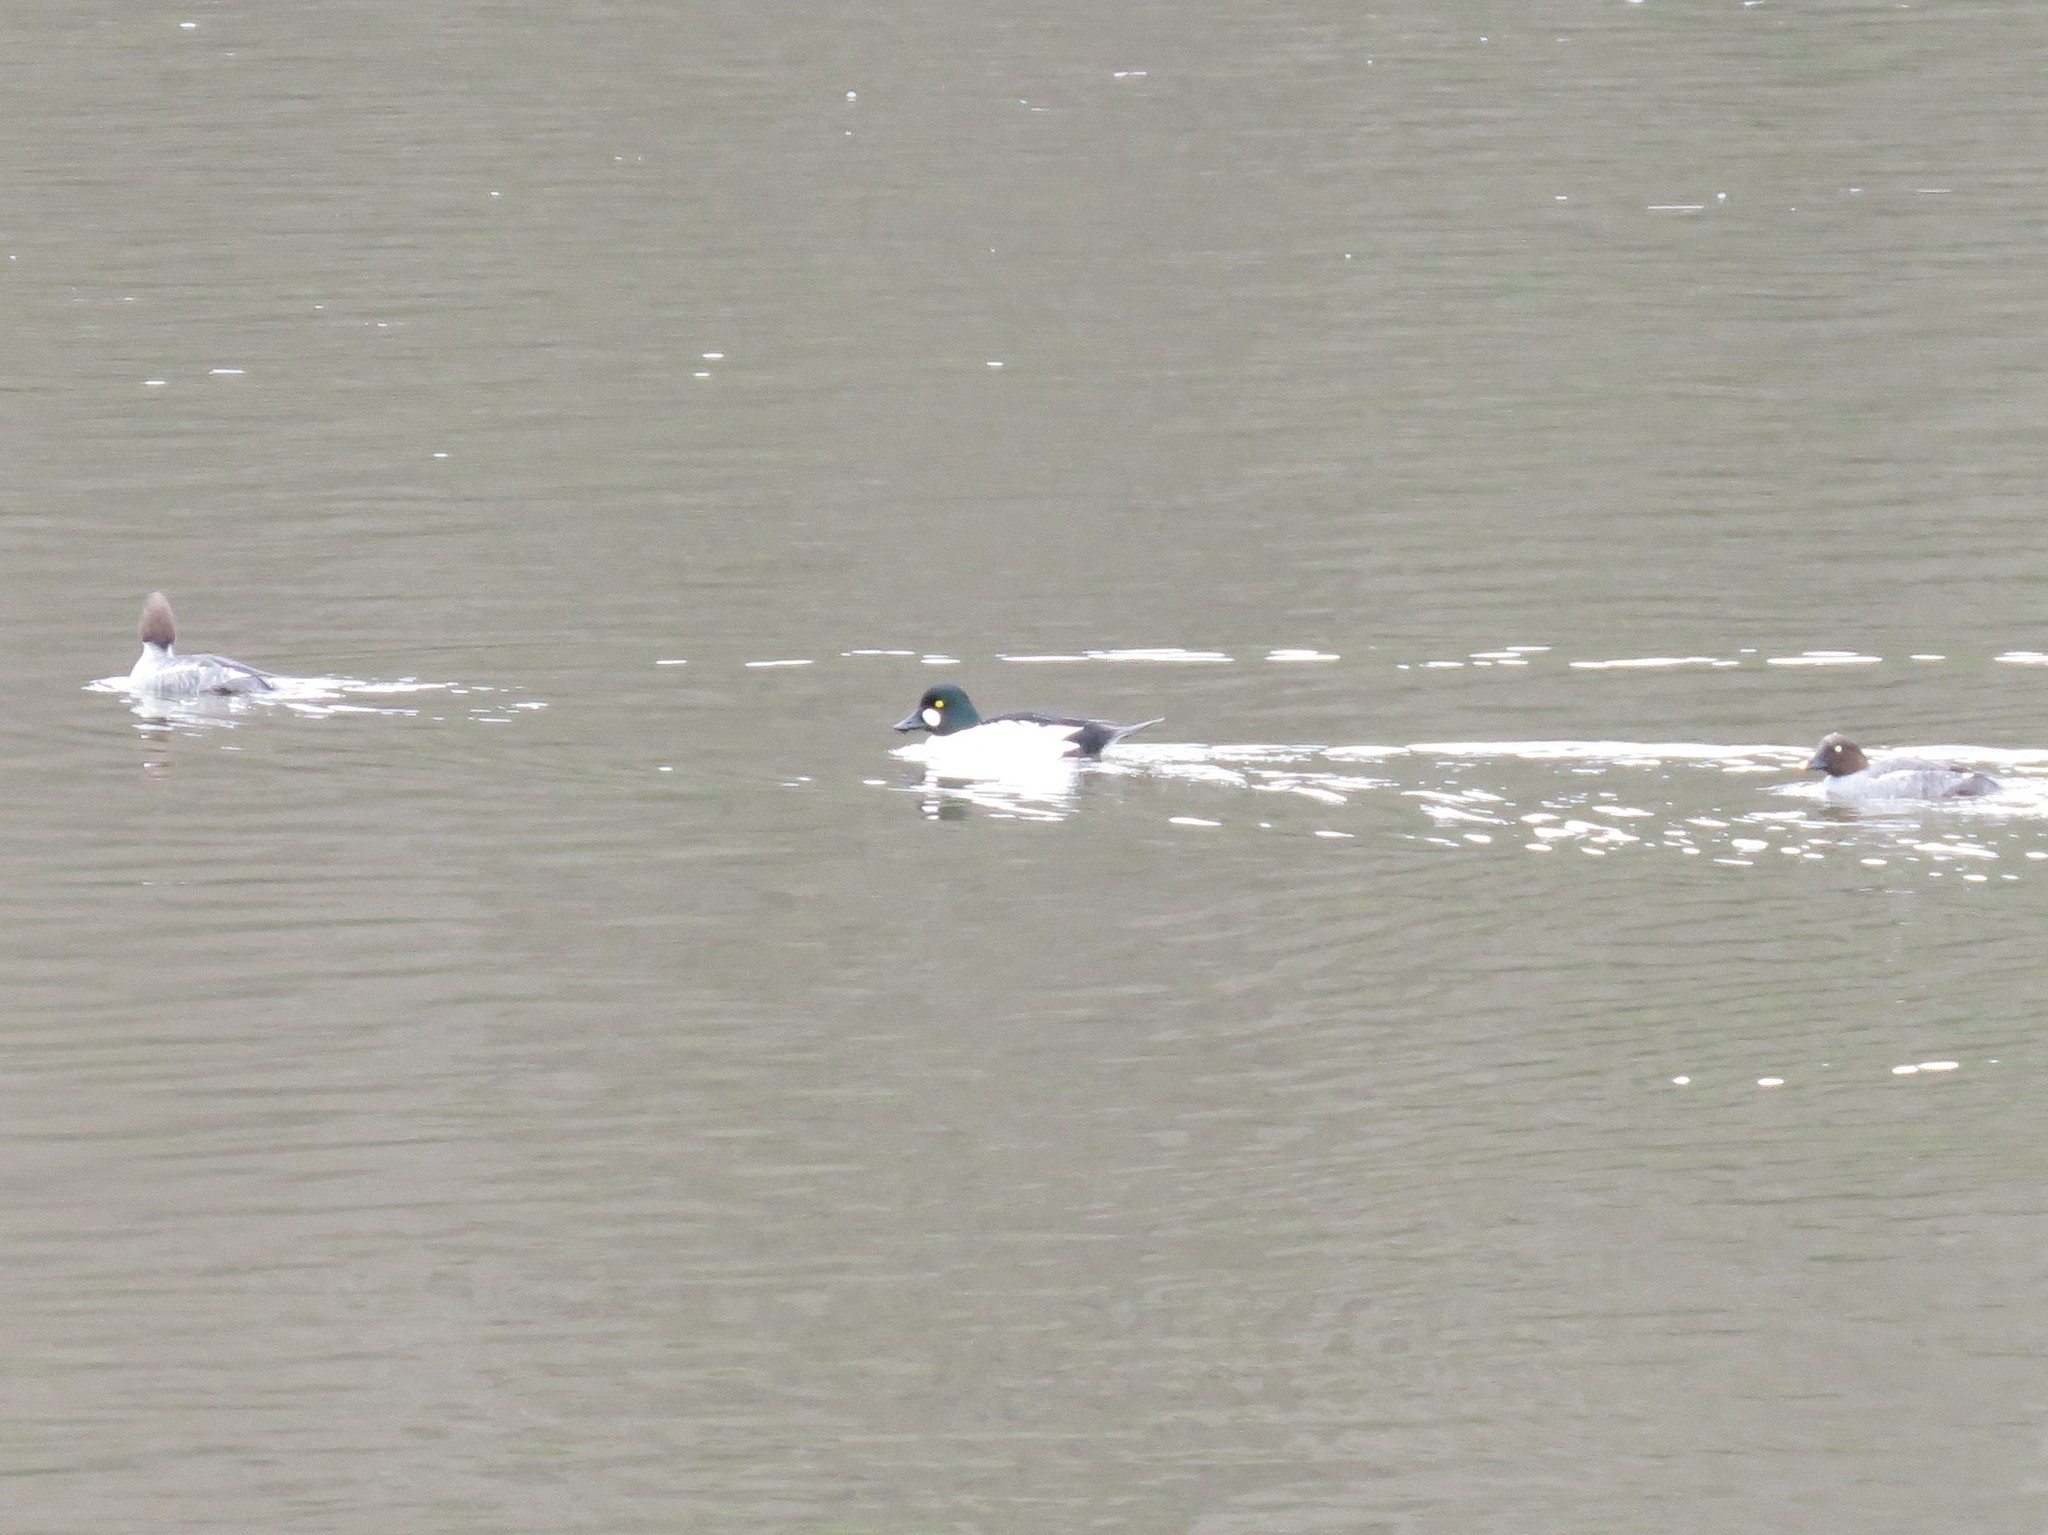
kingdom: Animalia
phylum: Chordata
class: Aves
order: Anseriformes
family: Anatidae
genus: Bucephala
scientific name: Bucephala clangula
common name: Common goldeneye
